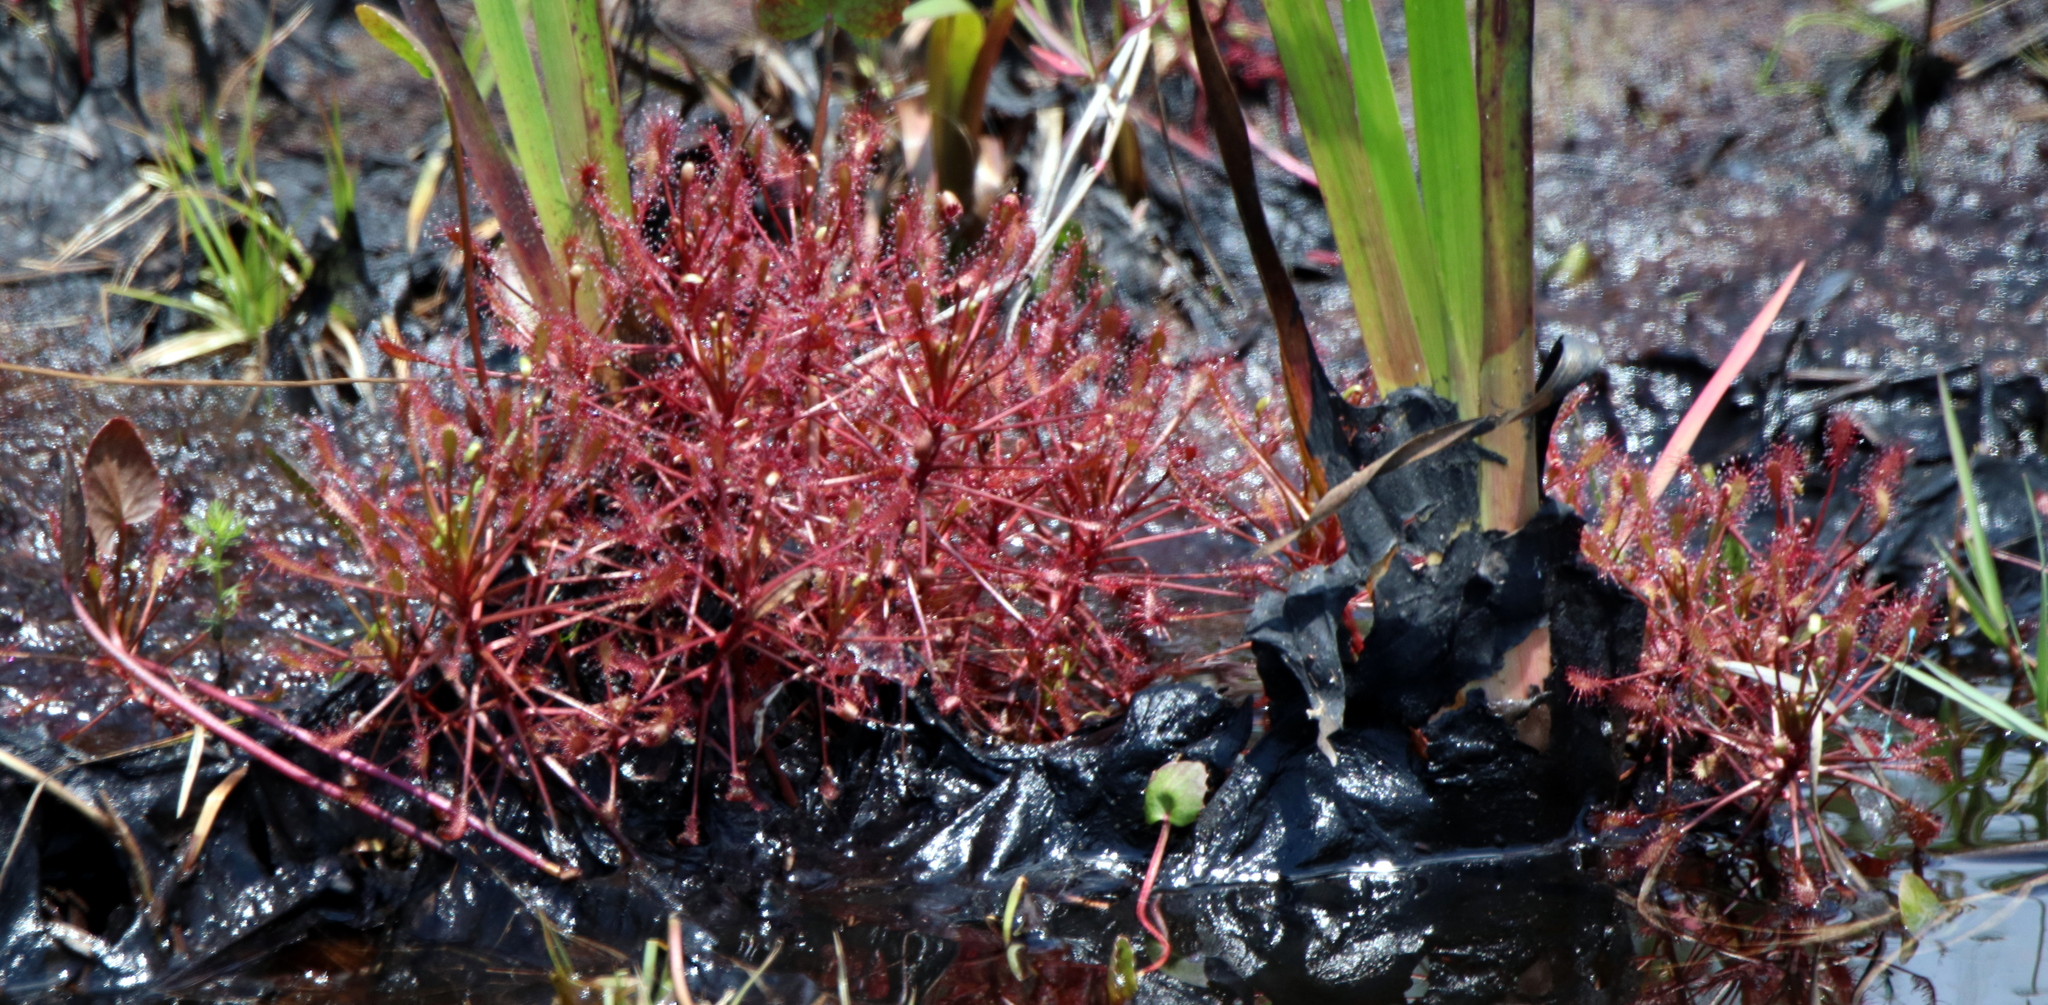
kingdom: Plantae
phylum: Tracheophyta
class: Magnoliopsida
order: Caryophyllales
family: Droseraceae
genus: Drosera
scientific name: Drosera intermedia
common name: Oblong-leaved sundew
